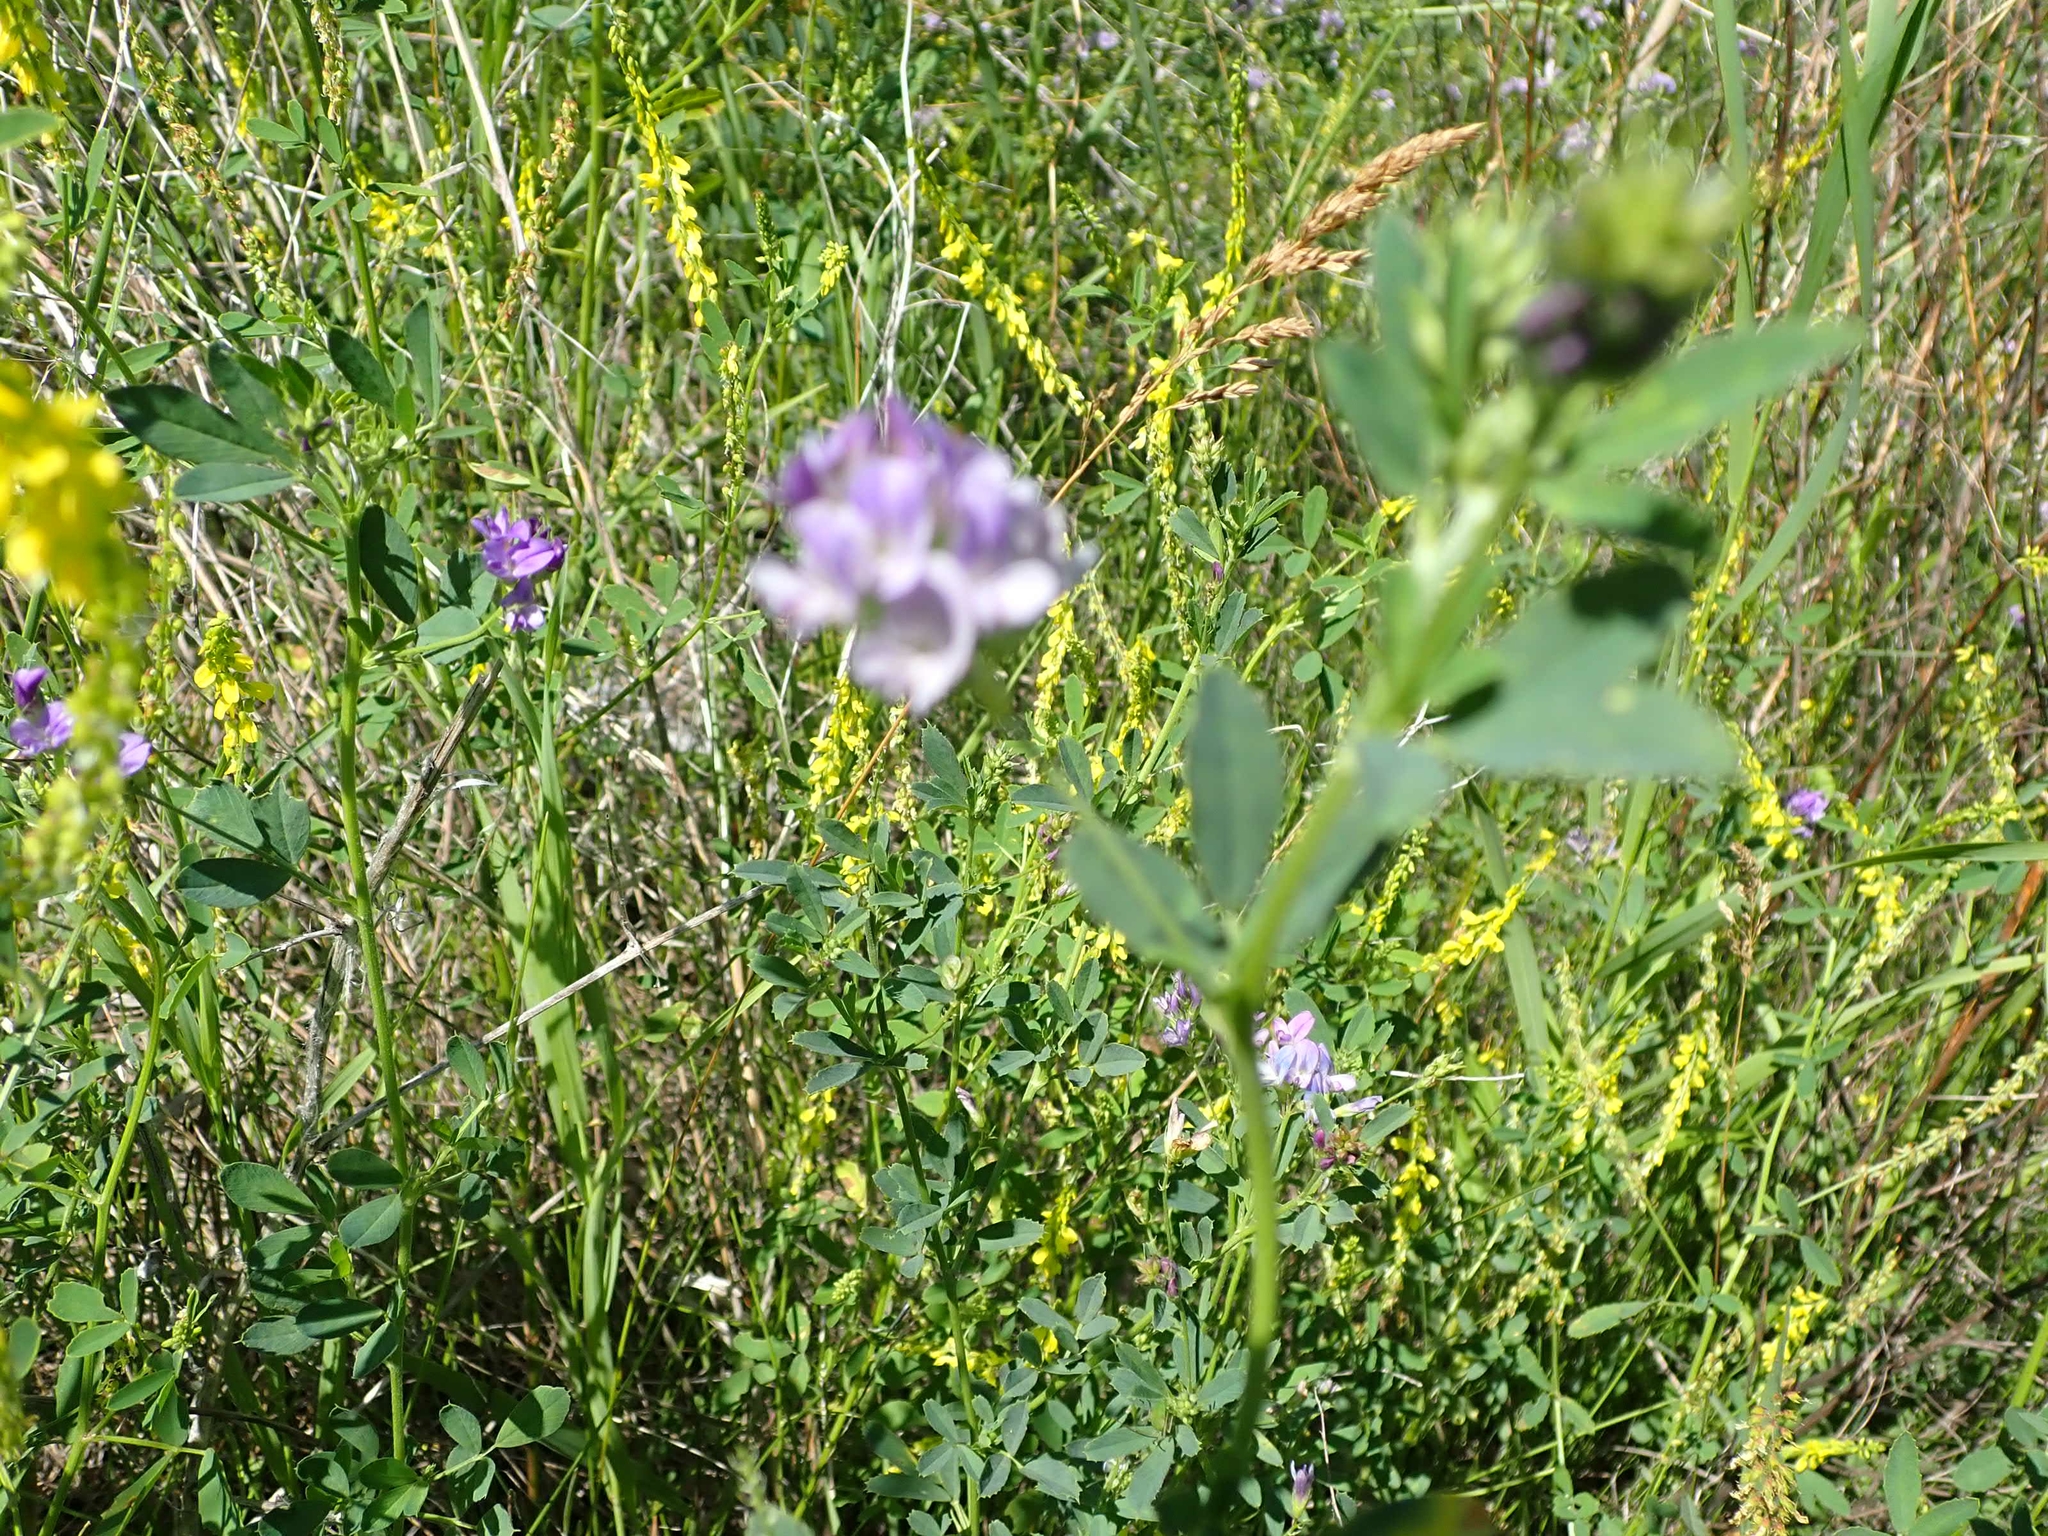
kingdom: Plantae
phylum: Tracheophyta
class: Magnoliopsida
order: Fabales
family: Fabaceae
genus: Medicago
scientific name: Medicago sativa
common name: Alfalfa
